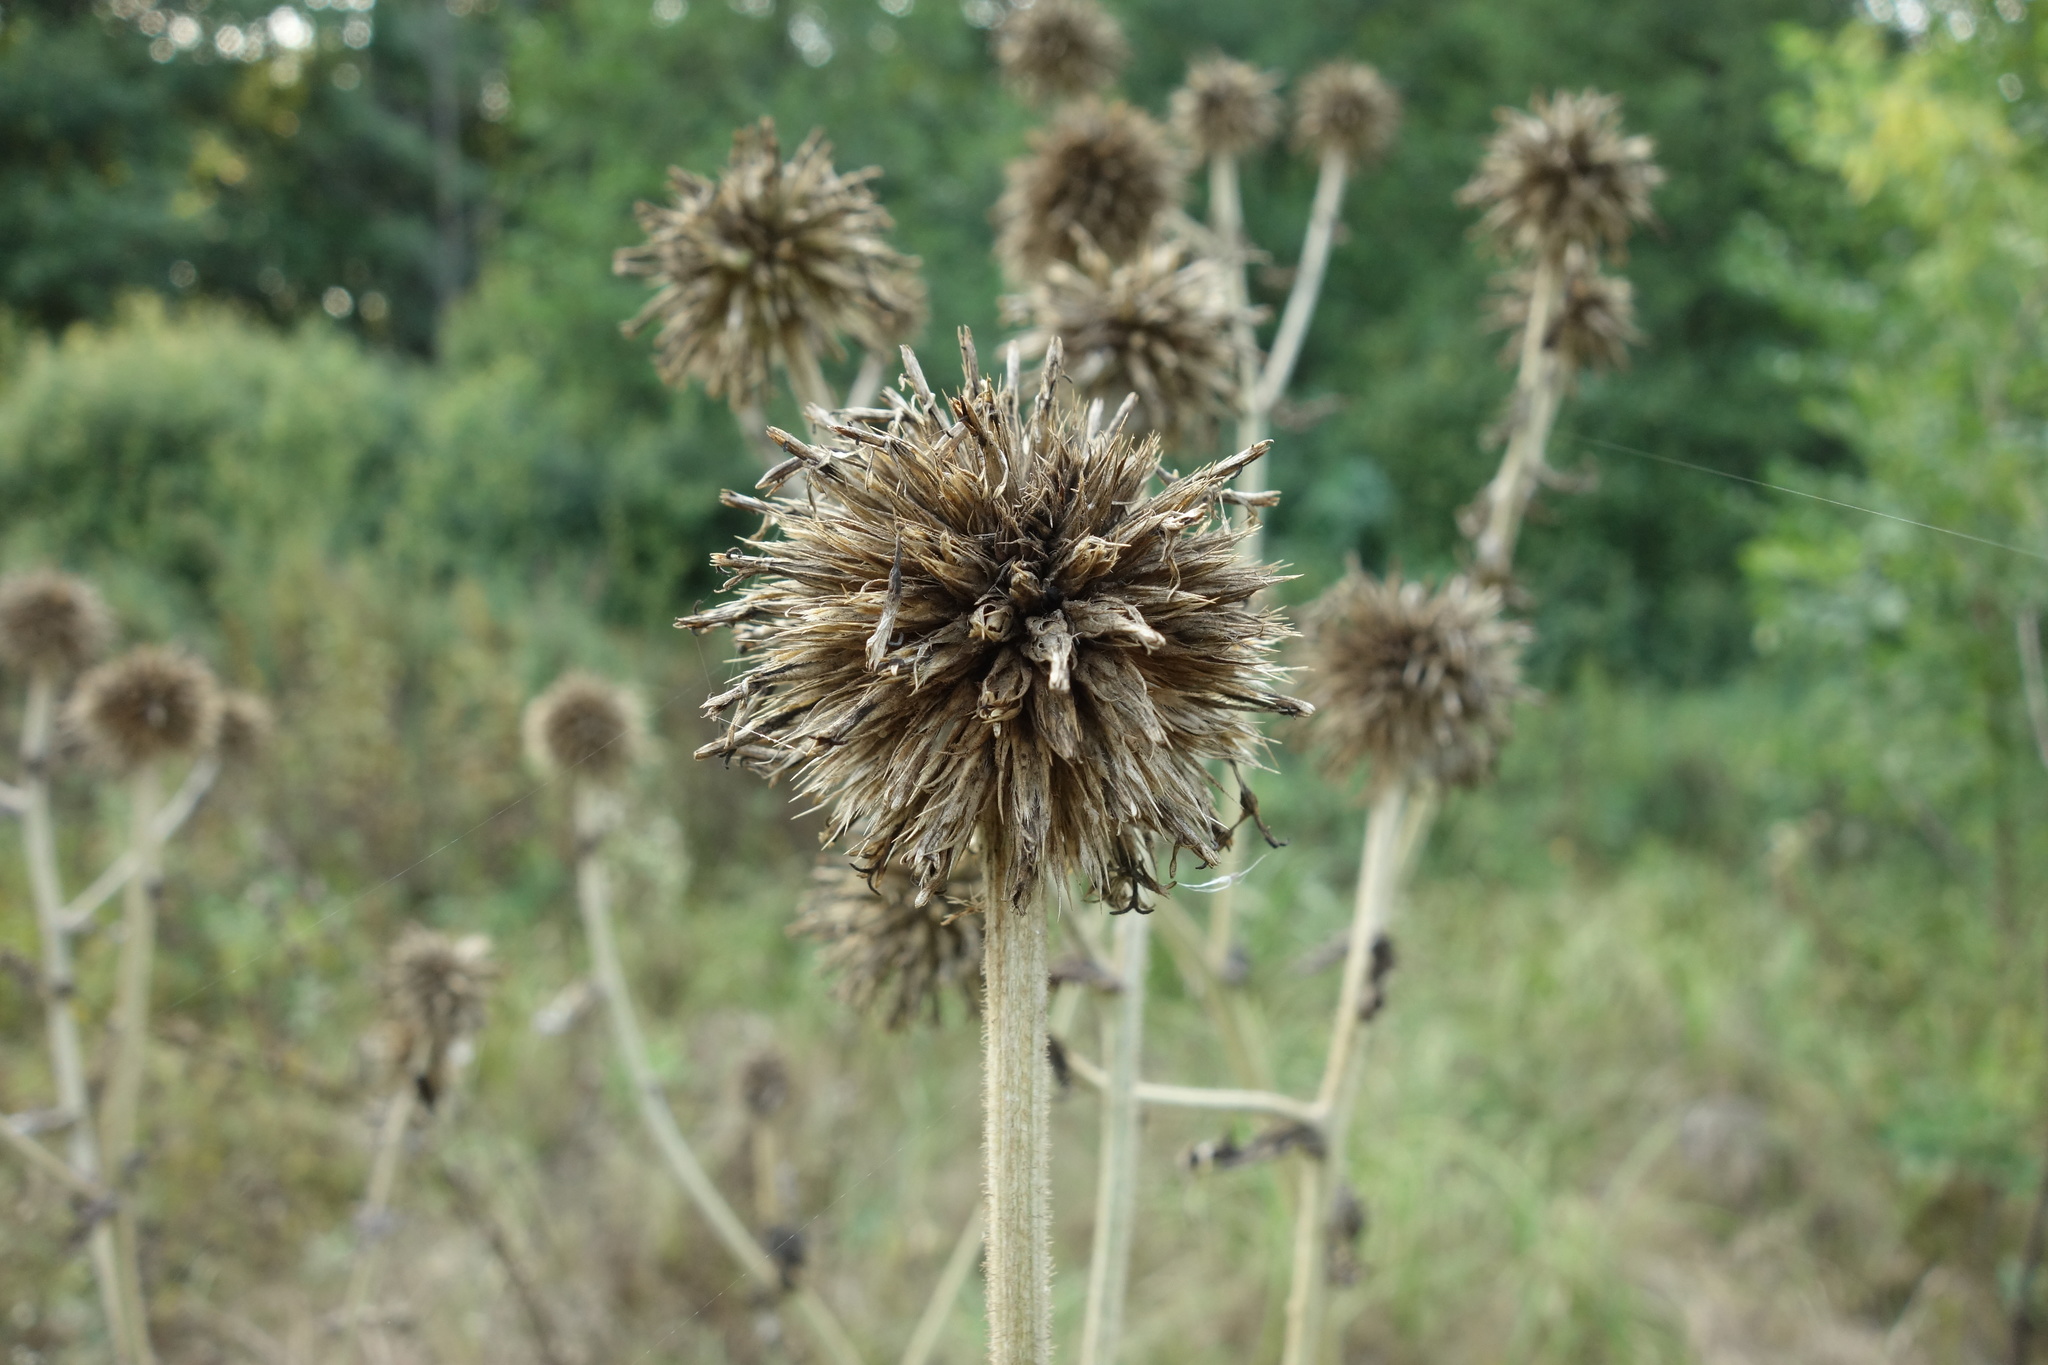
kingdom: Plantae
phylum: Tracheophyta
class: Magnoliopsida
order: Asterales
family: Asteraceae
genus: Echinops
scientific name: Echinops sphaerocephalus
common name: Glandular globe-thistle
